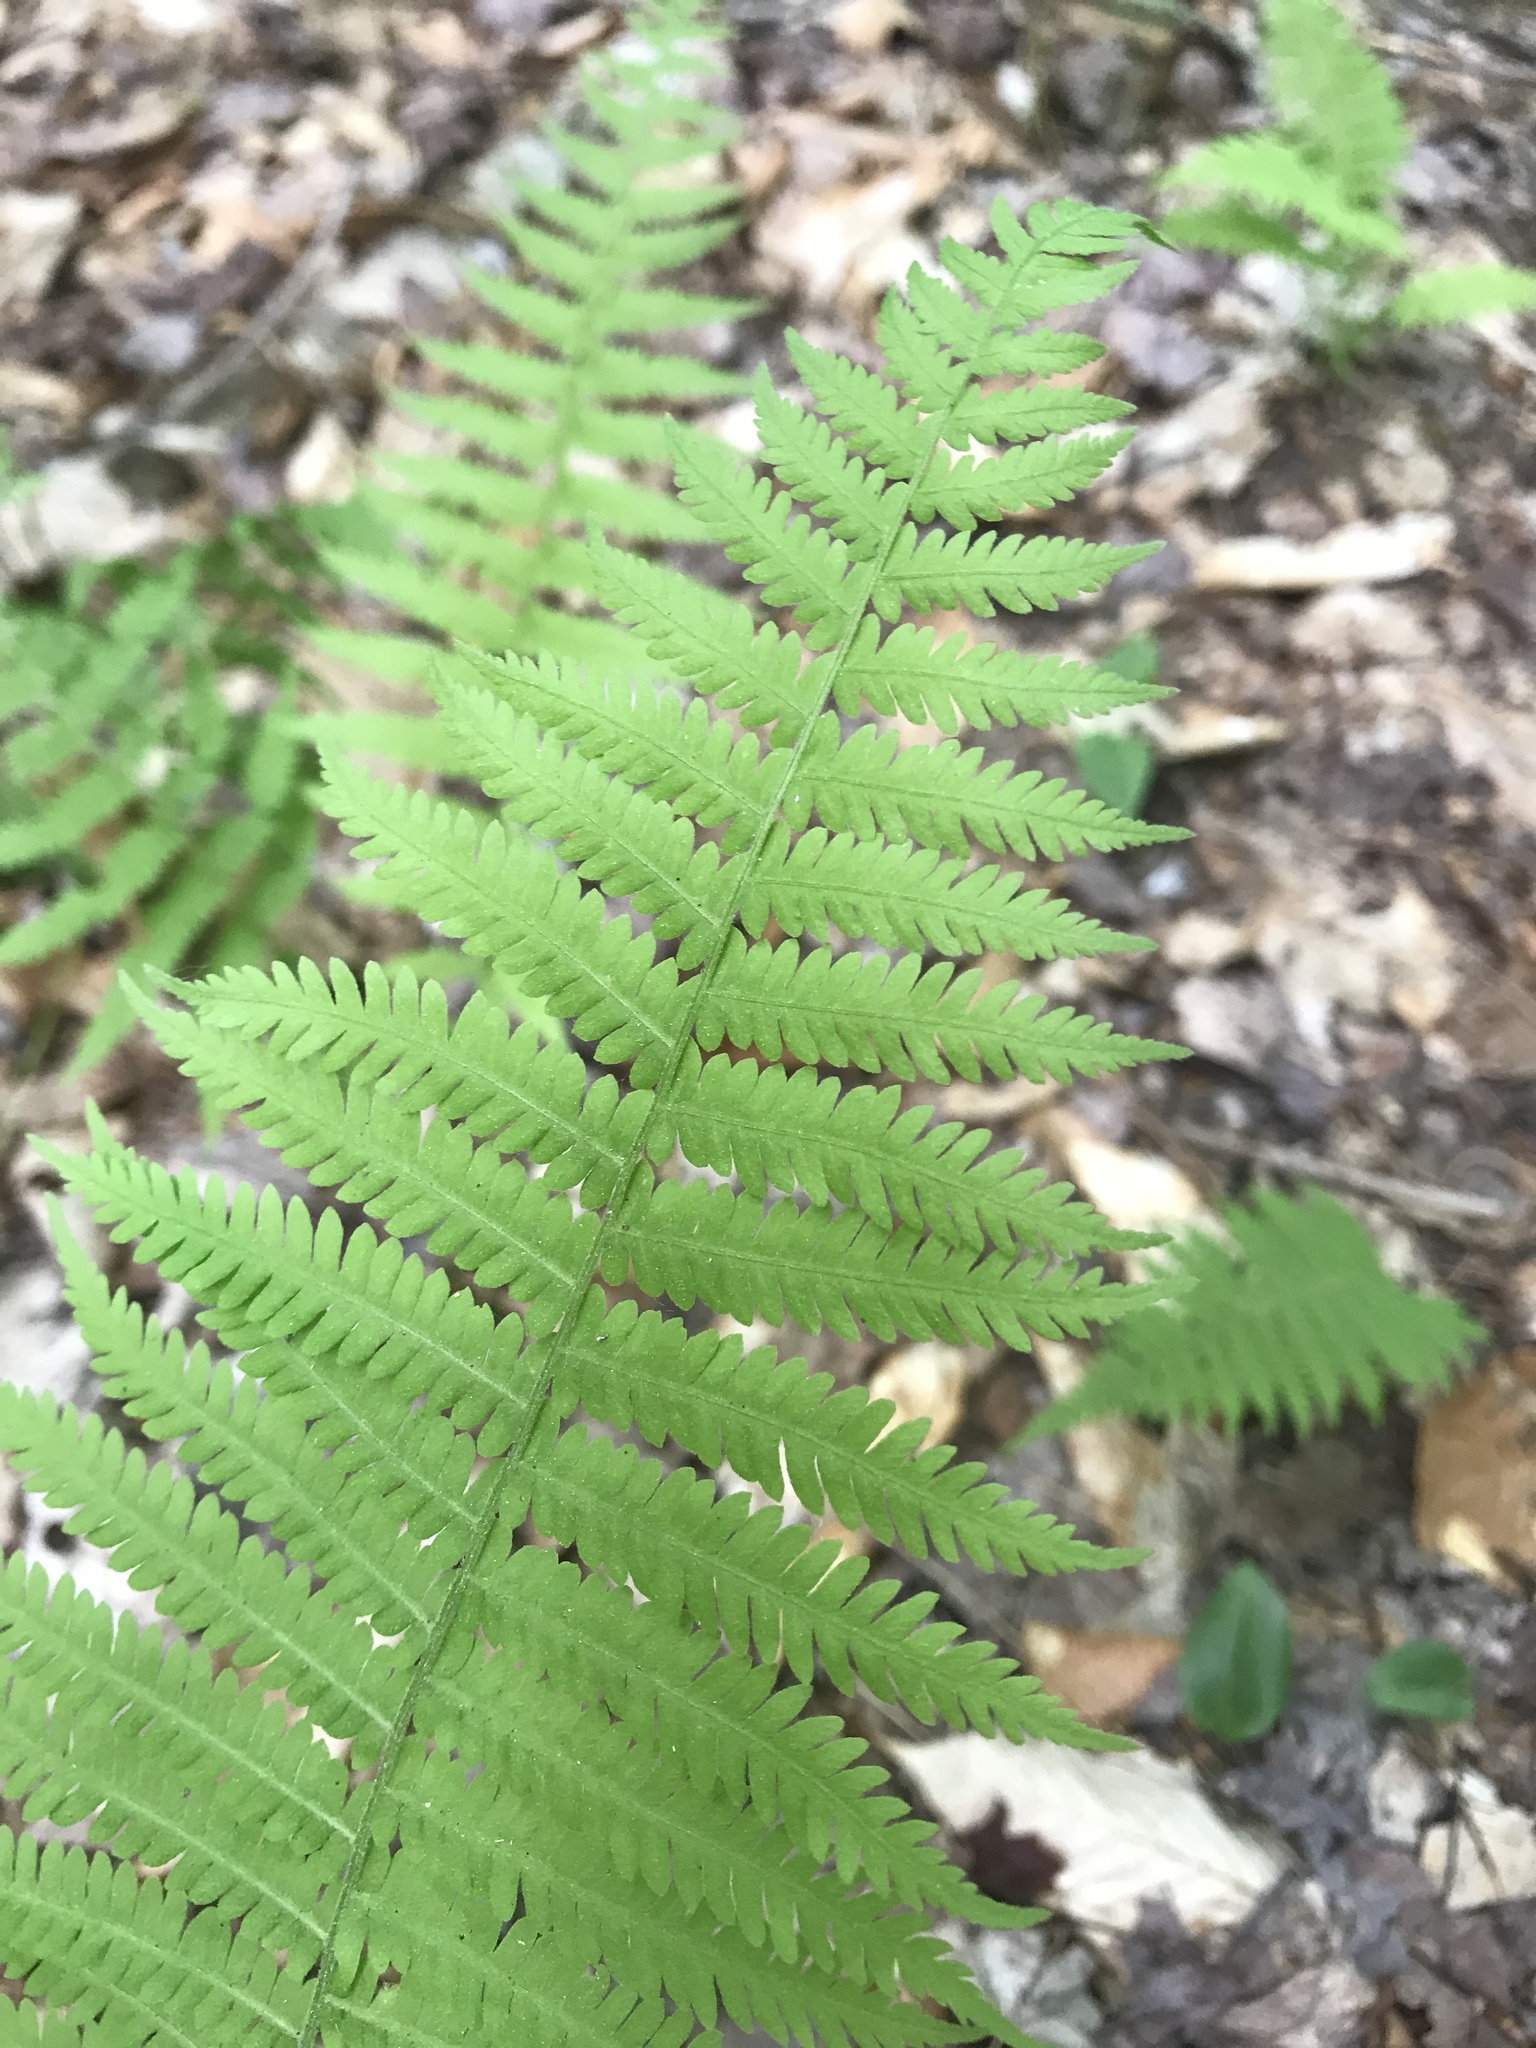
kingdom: Plantae
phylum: Tracheophyta
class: Polypodiopsida
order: Polypodiales
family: Thelypteridaceae
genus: Amauropelta
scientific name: Amauropelta noveboracensis
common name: New york fern
